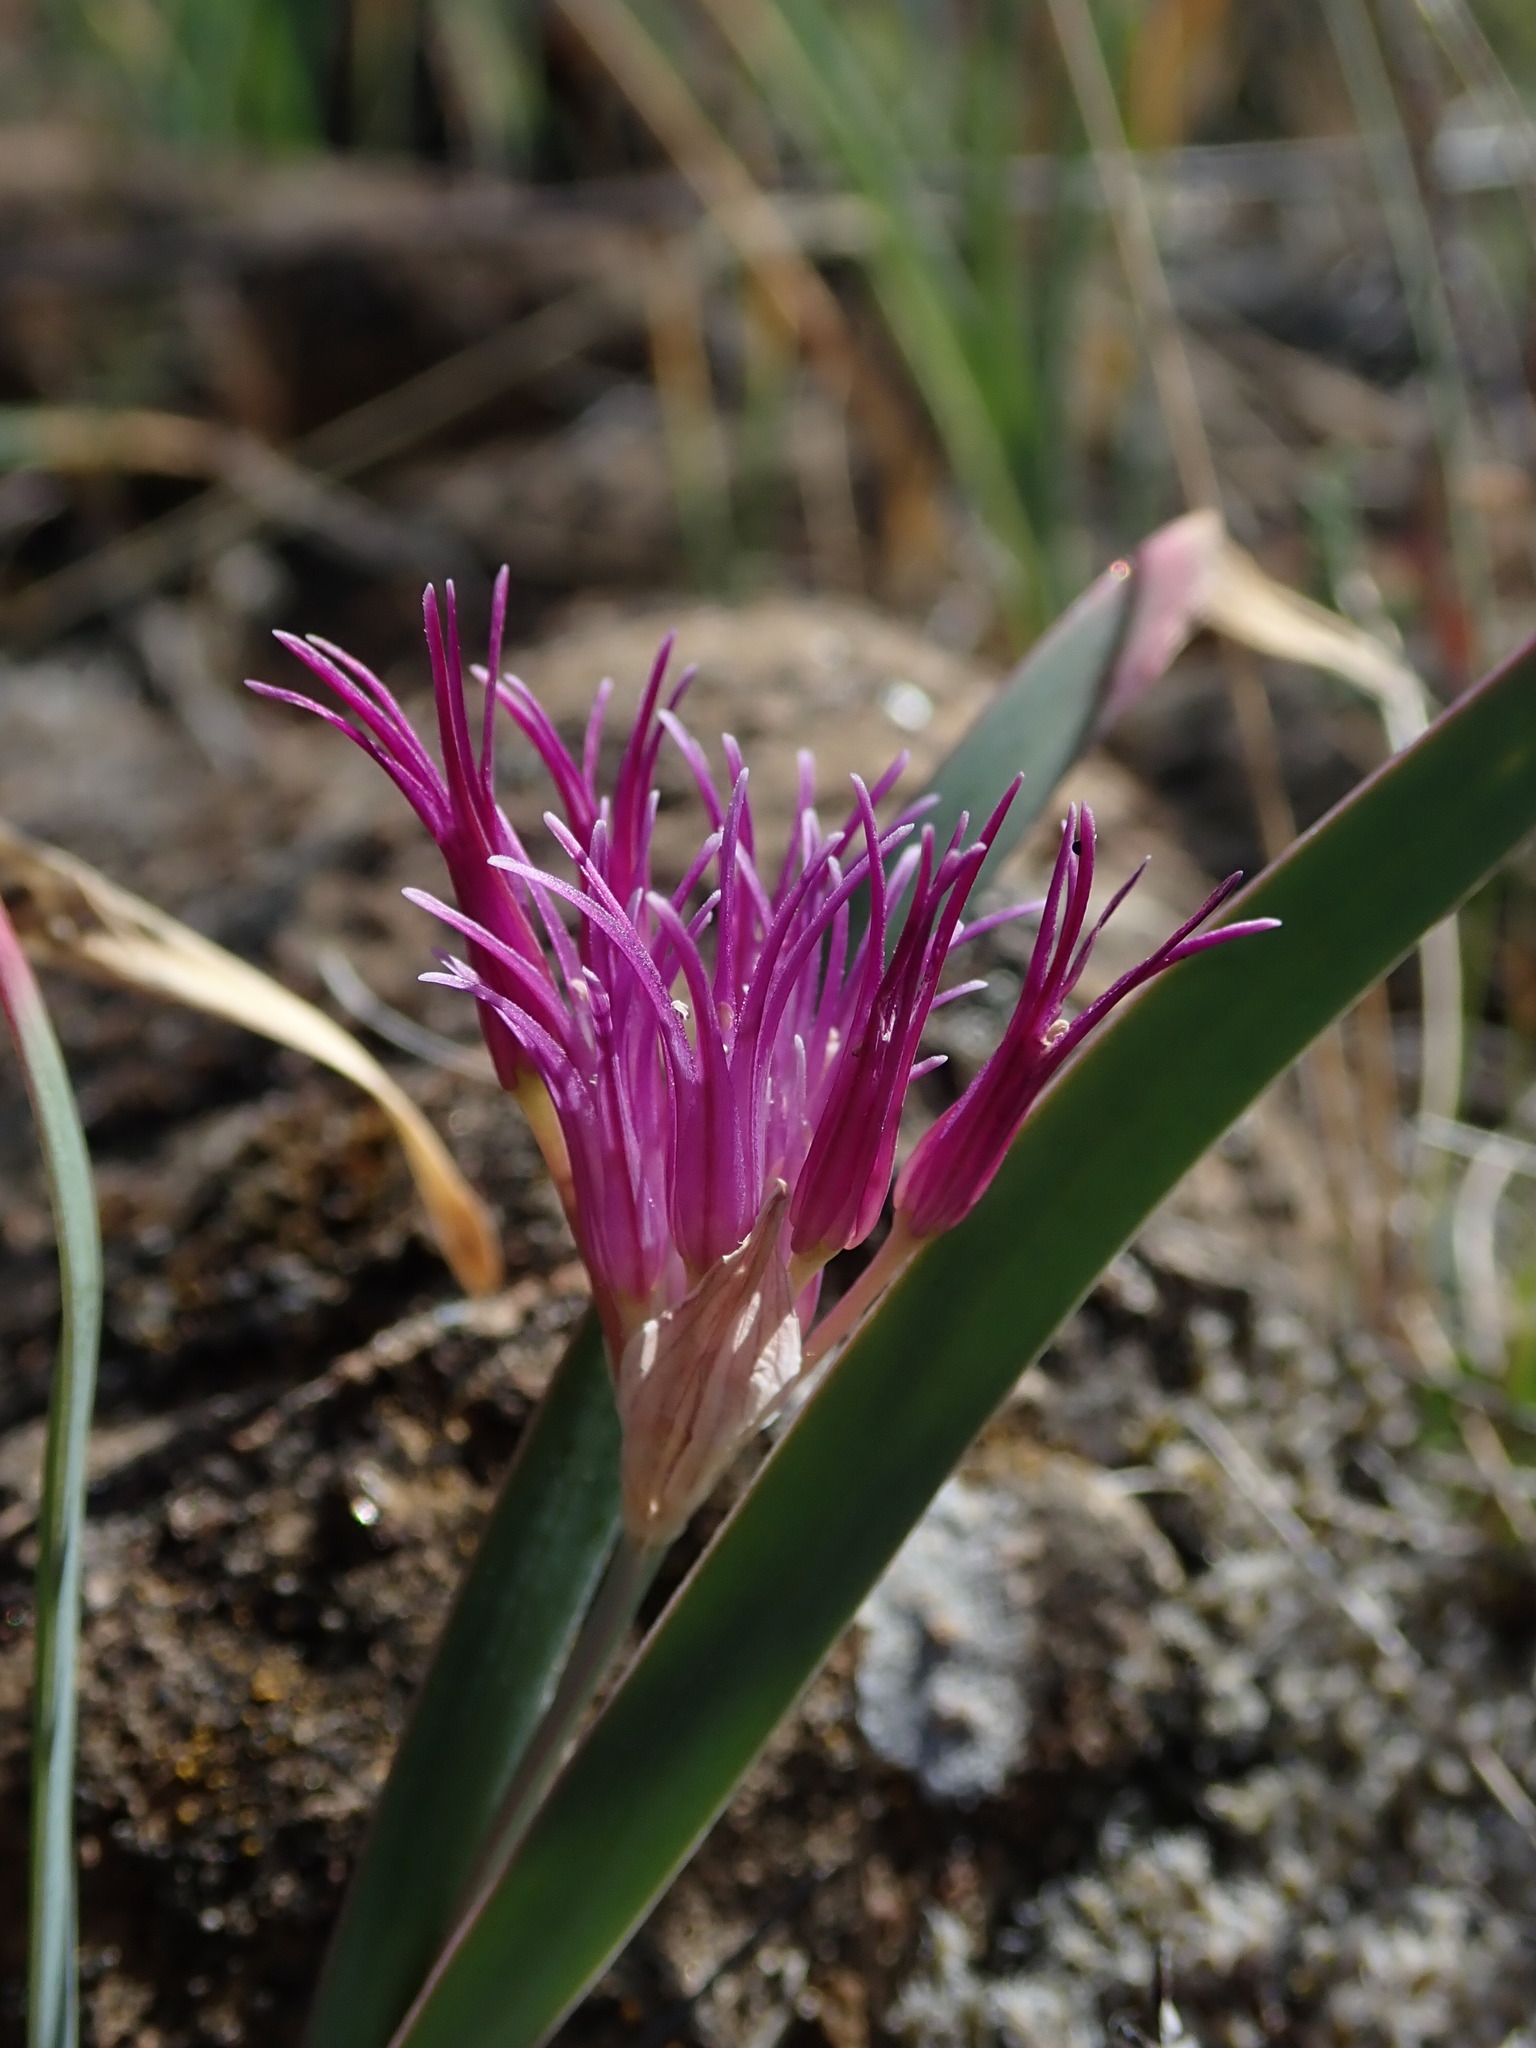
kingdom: Plantae
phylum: Tracheophyta
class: Liliopsida
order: Asparagales
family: Amaryllidaceae
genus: Allium
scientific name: Allium falcifolium
